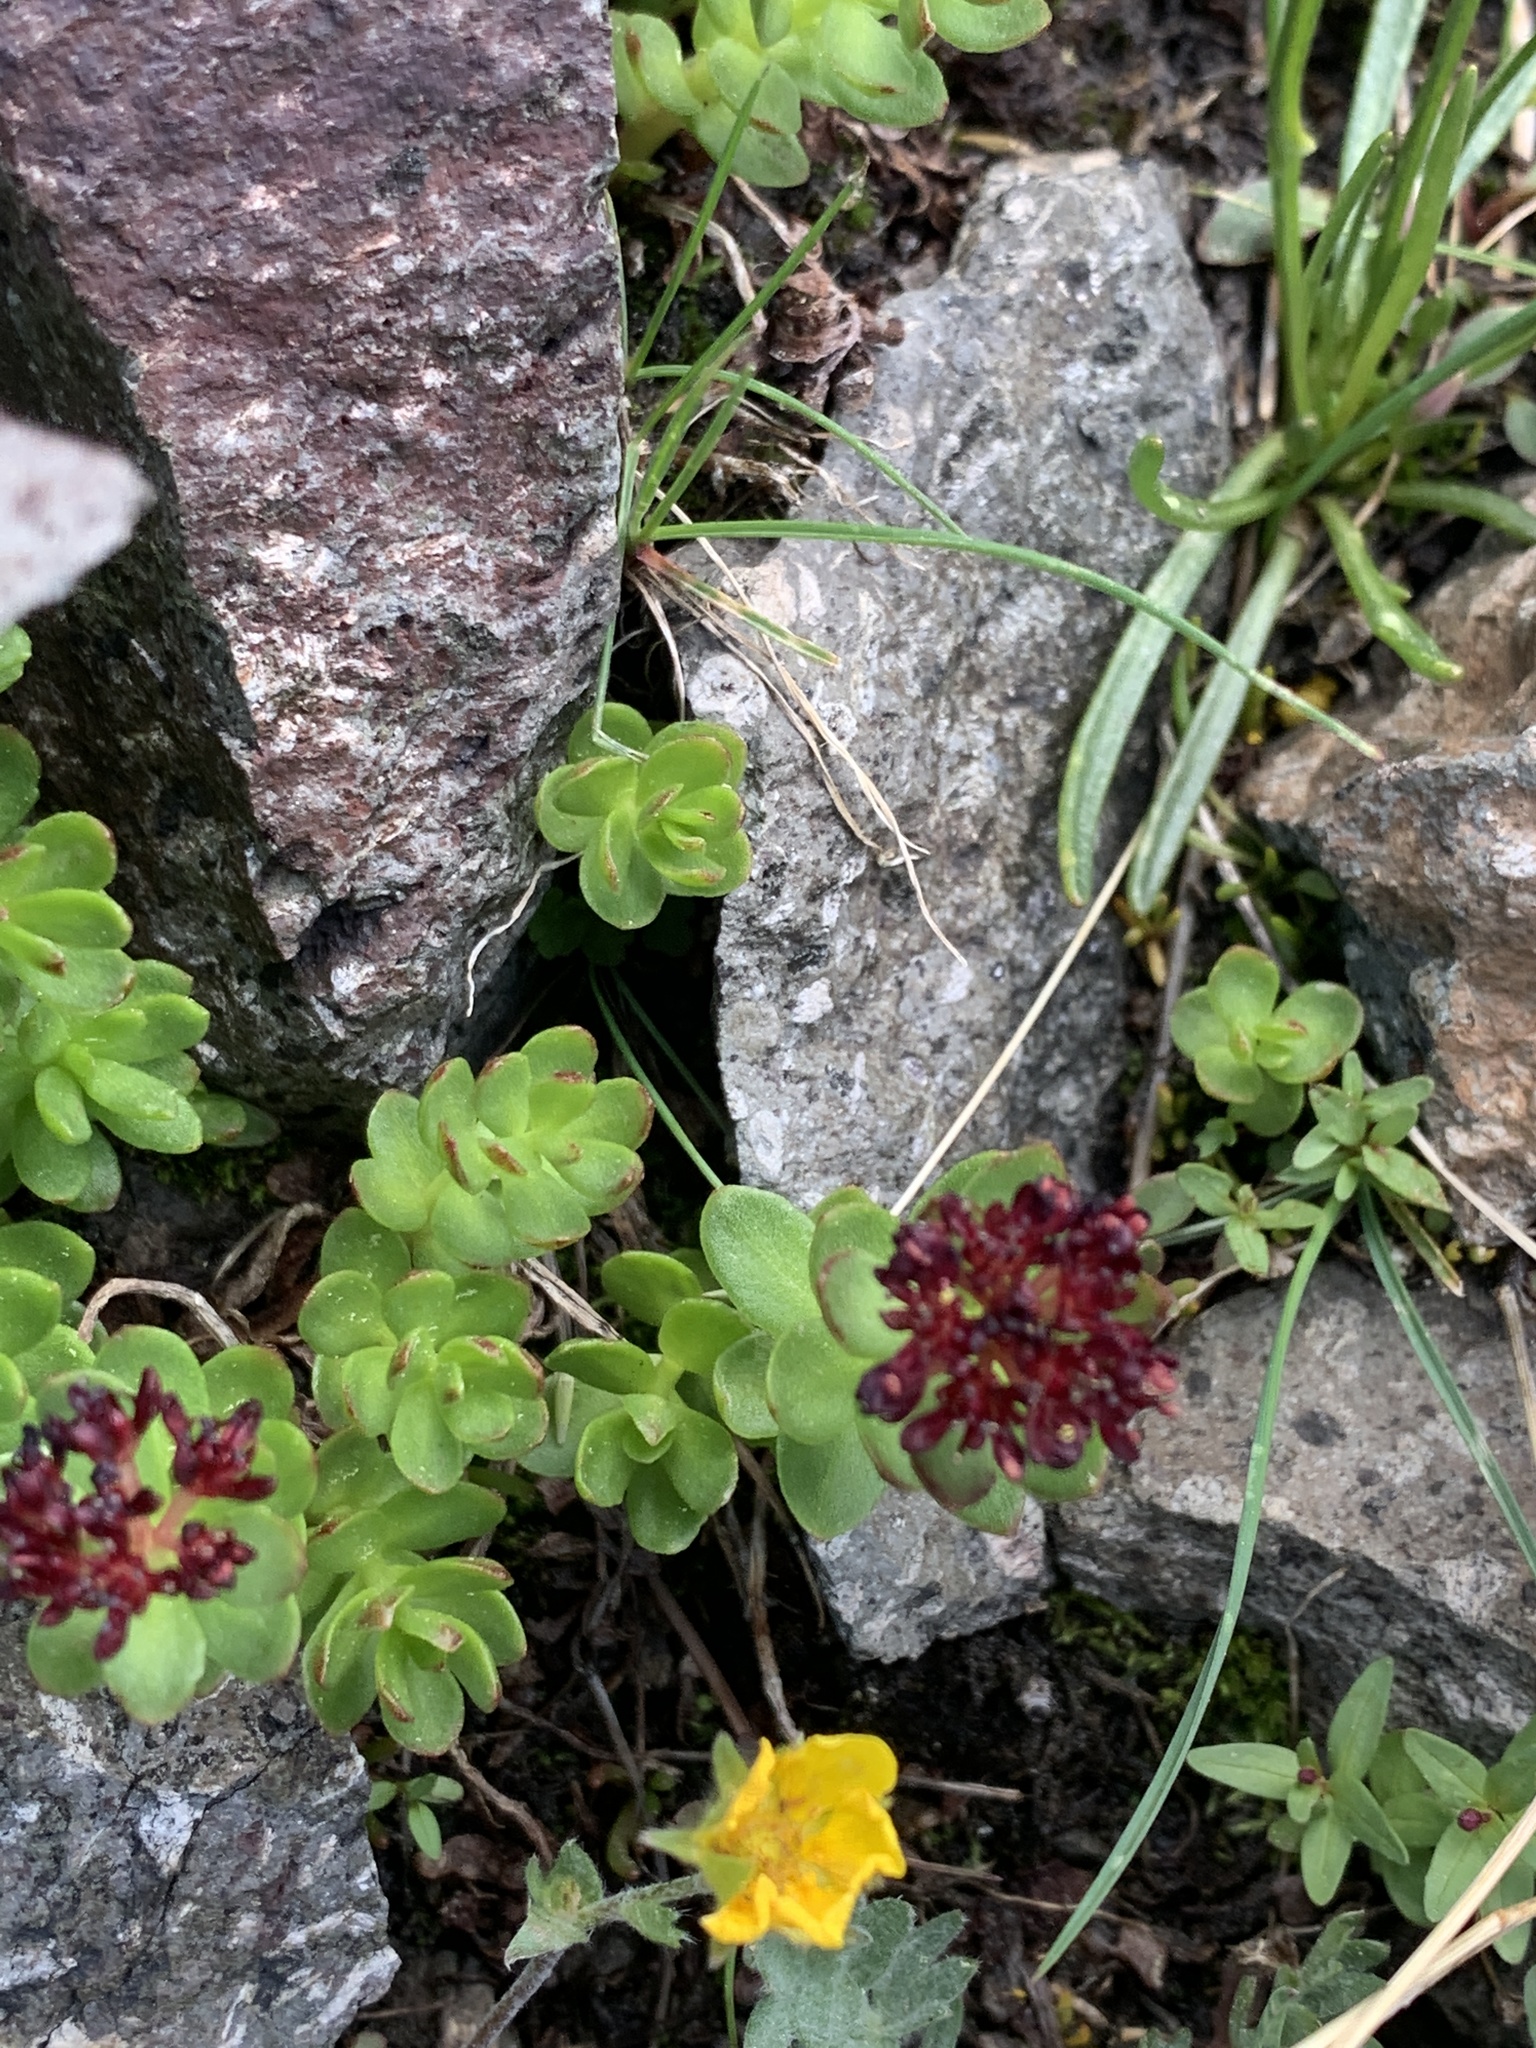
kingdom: Plantae
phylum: Tracheophyta
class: Magnoliopsida
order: Saxifragales
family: Crassulaceae
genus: Rhodiola
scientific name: Rhodiola integrifolia
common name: Western roseroot
